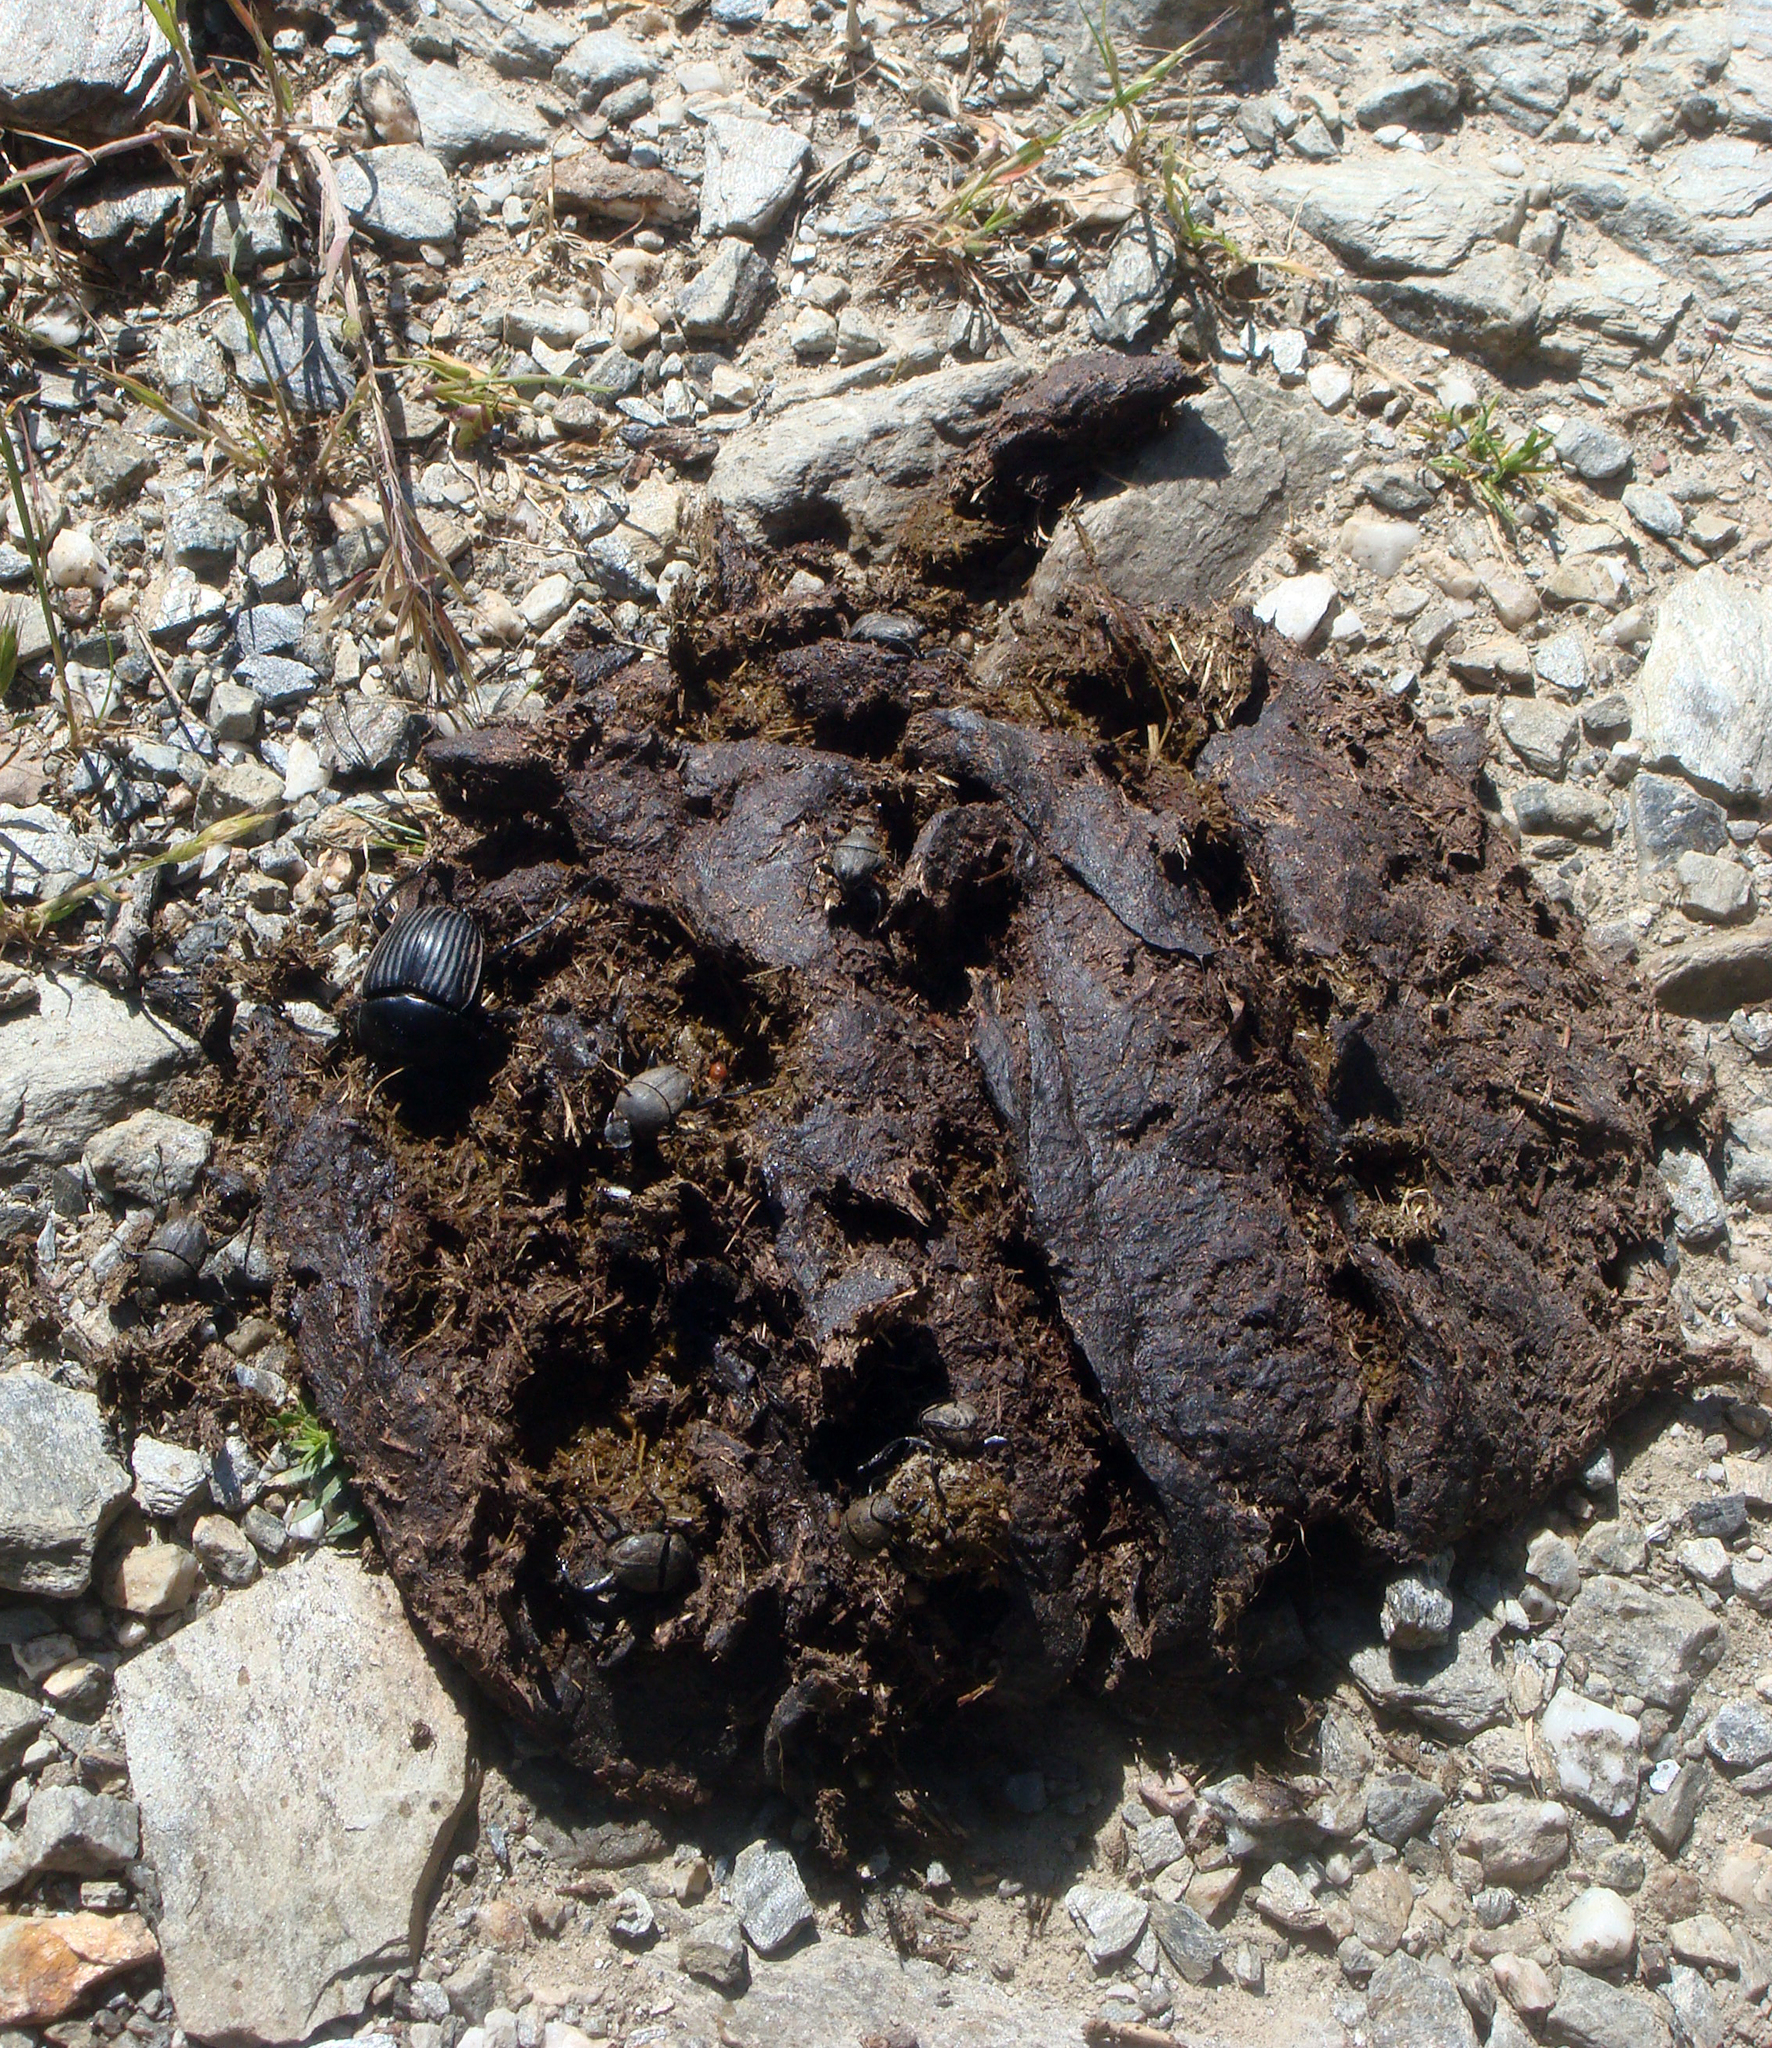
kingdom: Animalia
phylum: Arthropoda
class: Insecta
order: Coleoptera
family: Scarabaeidae
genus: Ateuchetus
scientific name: Ateuchetus laticollis
